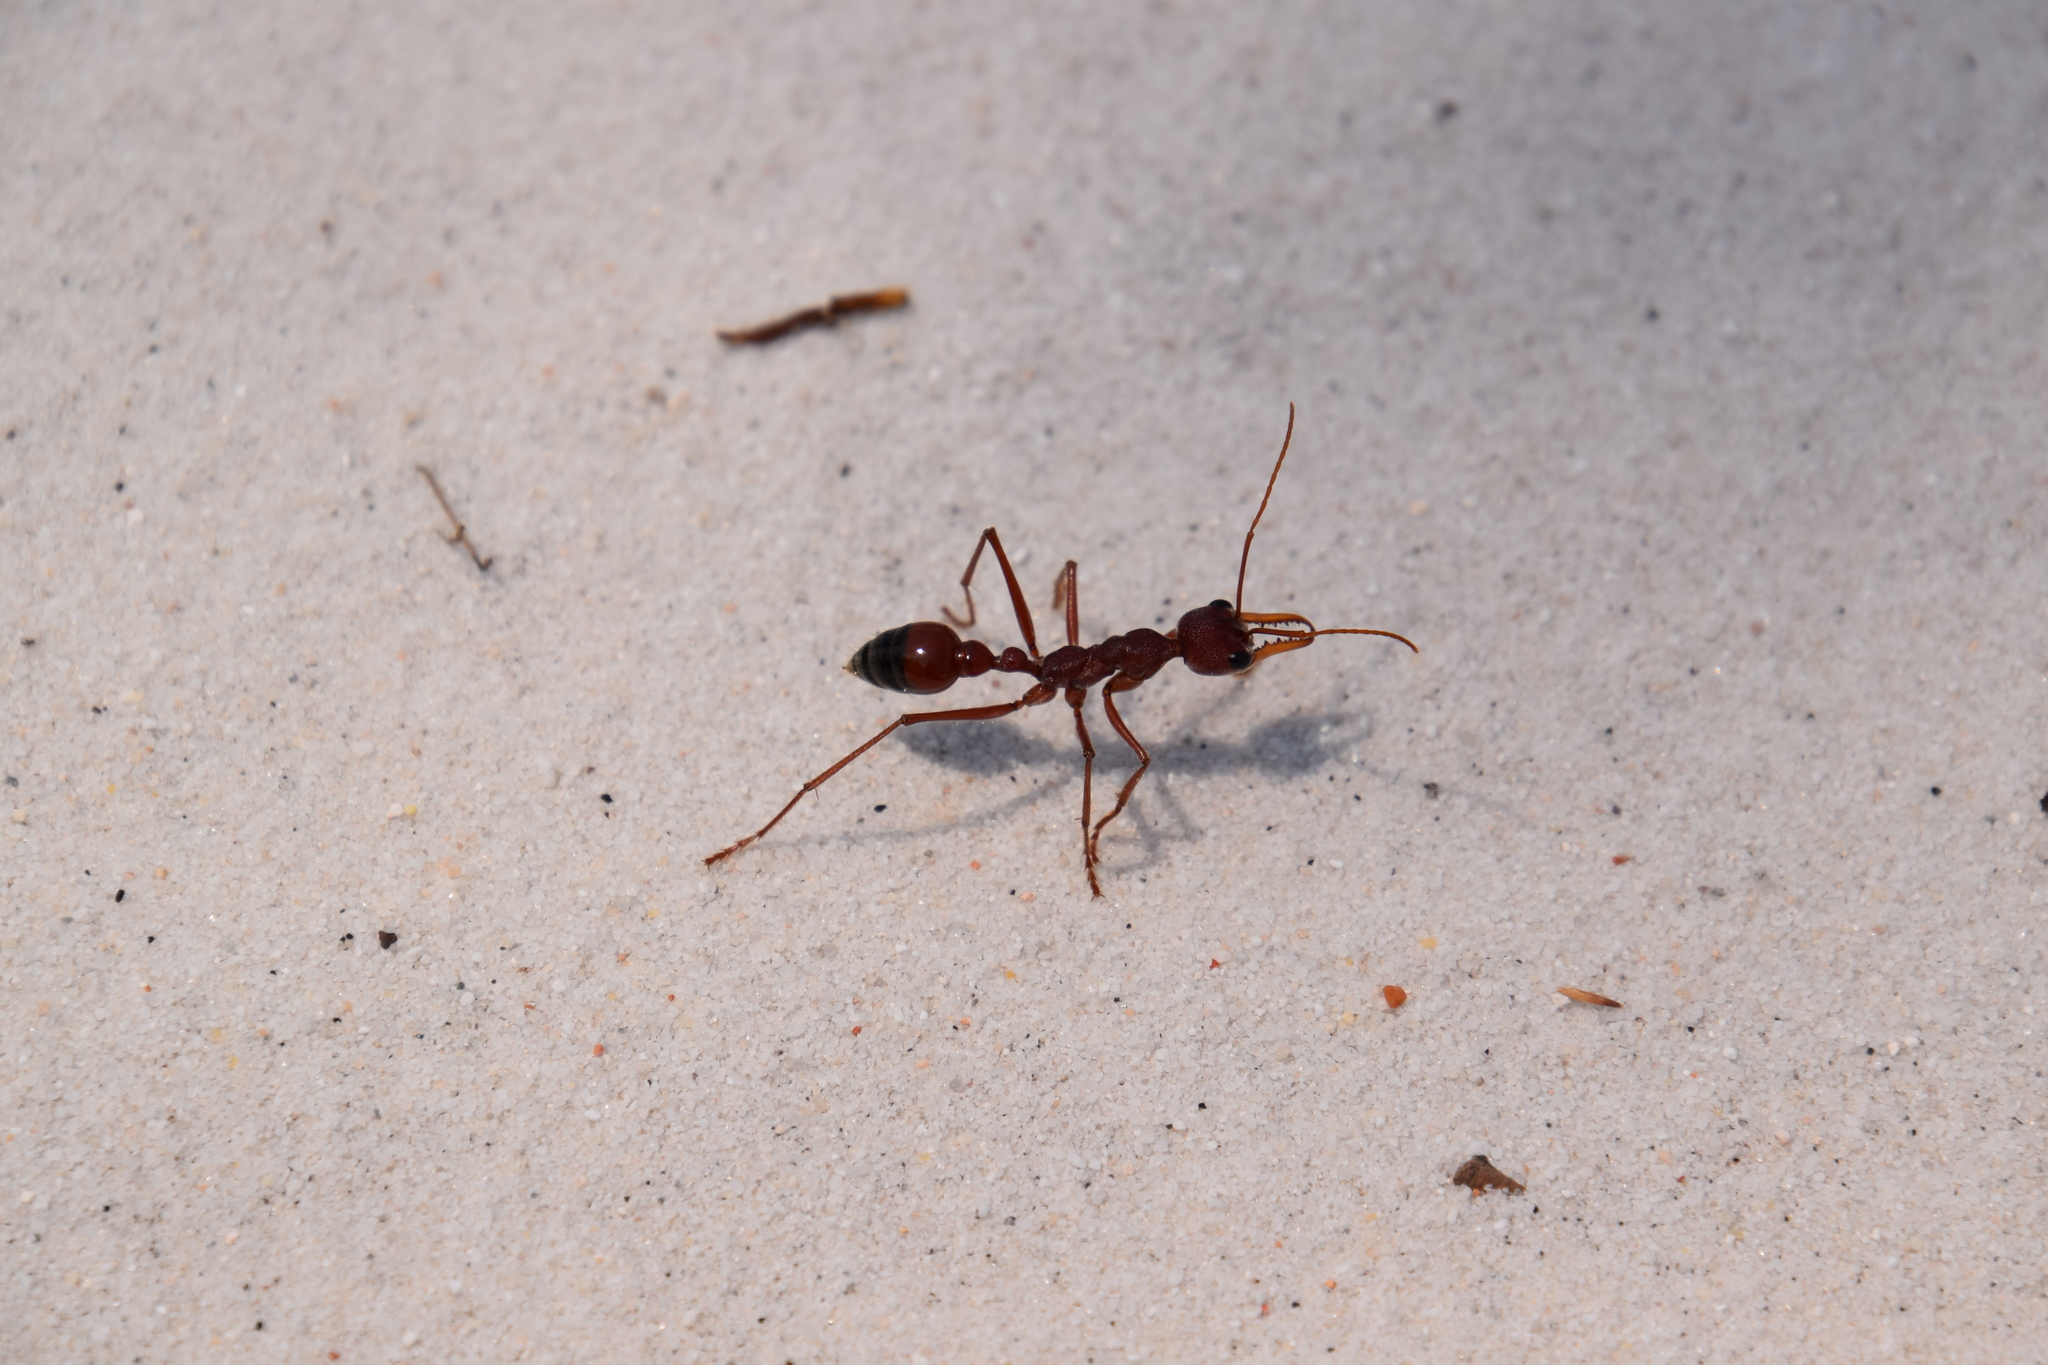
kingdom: Animalia
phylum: Arthropoda
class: Insecta
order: Hymenoptera
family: Formicidae
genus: Myrmecia
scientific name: Myrmecia gulosa
